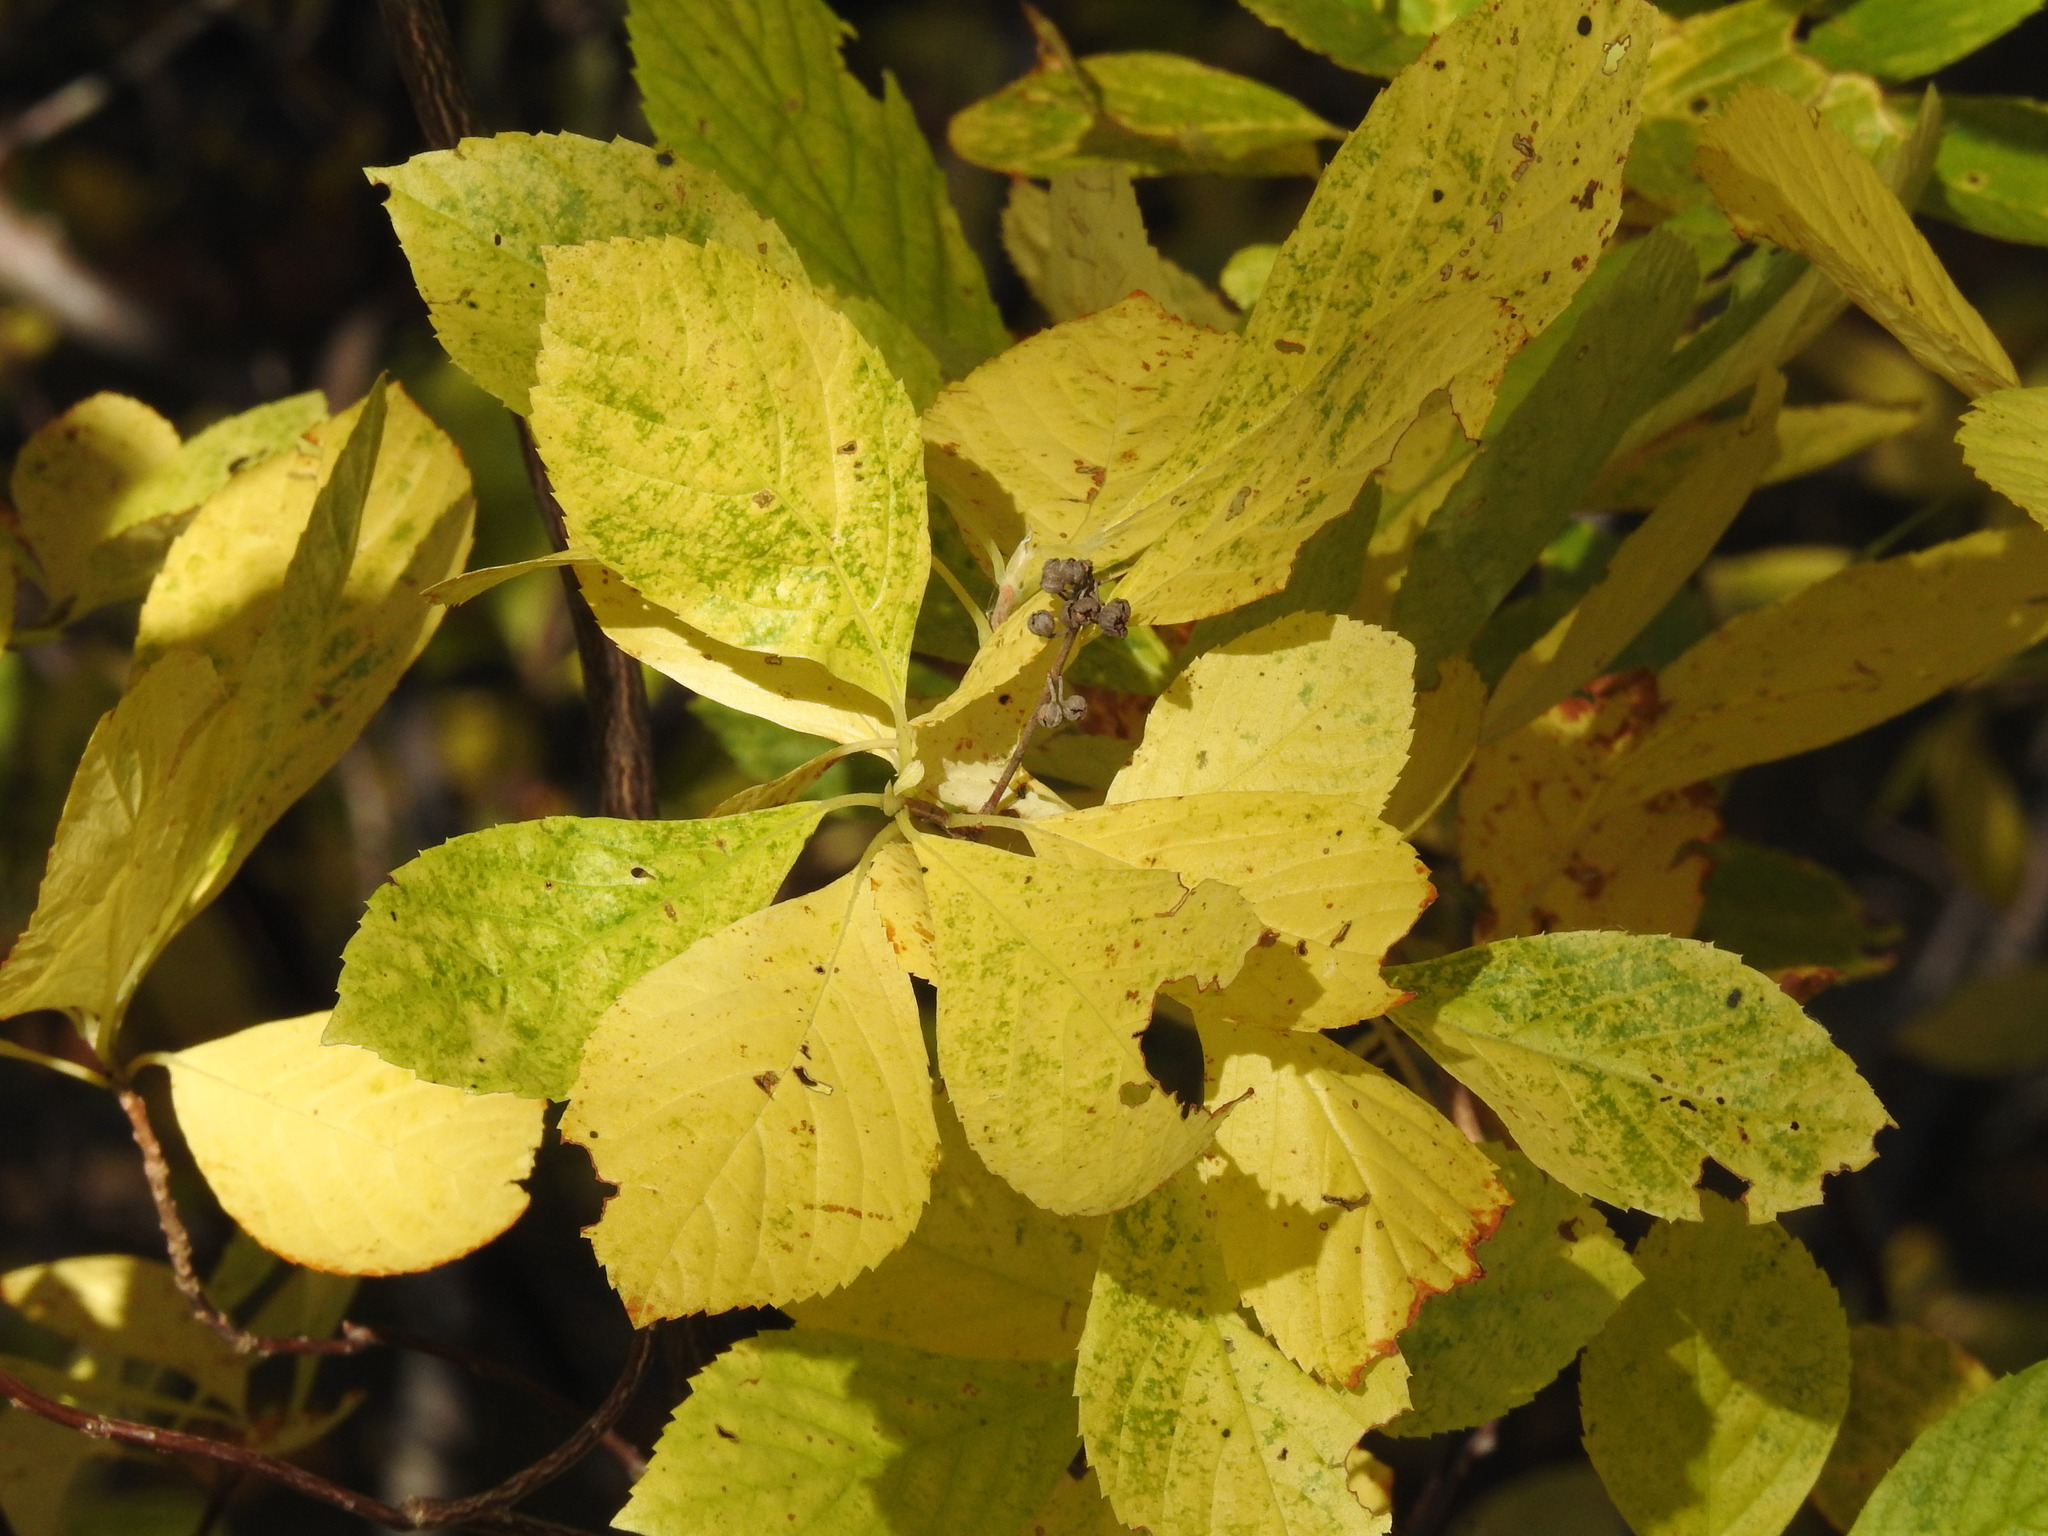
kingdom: Plantae
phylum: Tracheophyta
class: Magnoliopsida
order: Ericales
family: Clethraceae
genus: Clethra
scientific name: Clethra alnifolia
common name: Sweet pepperbush
